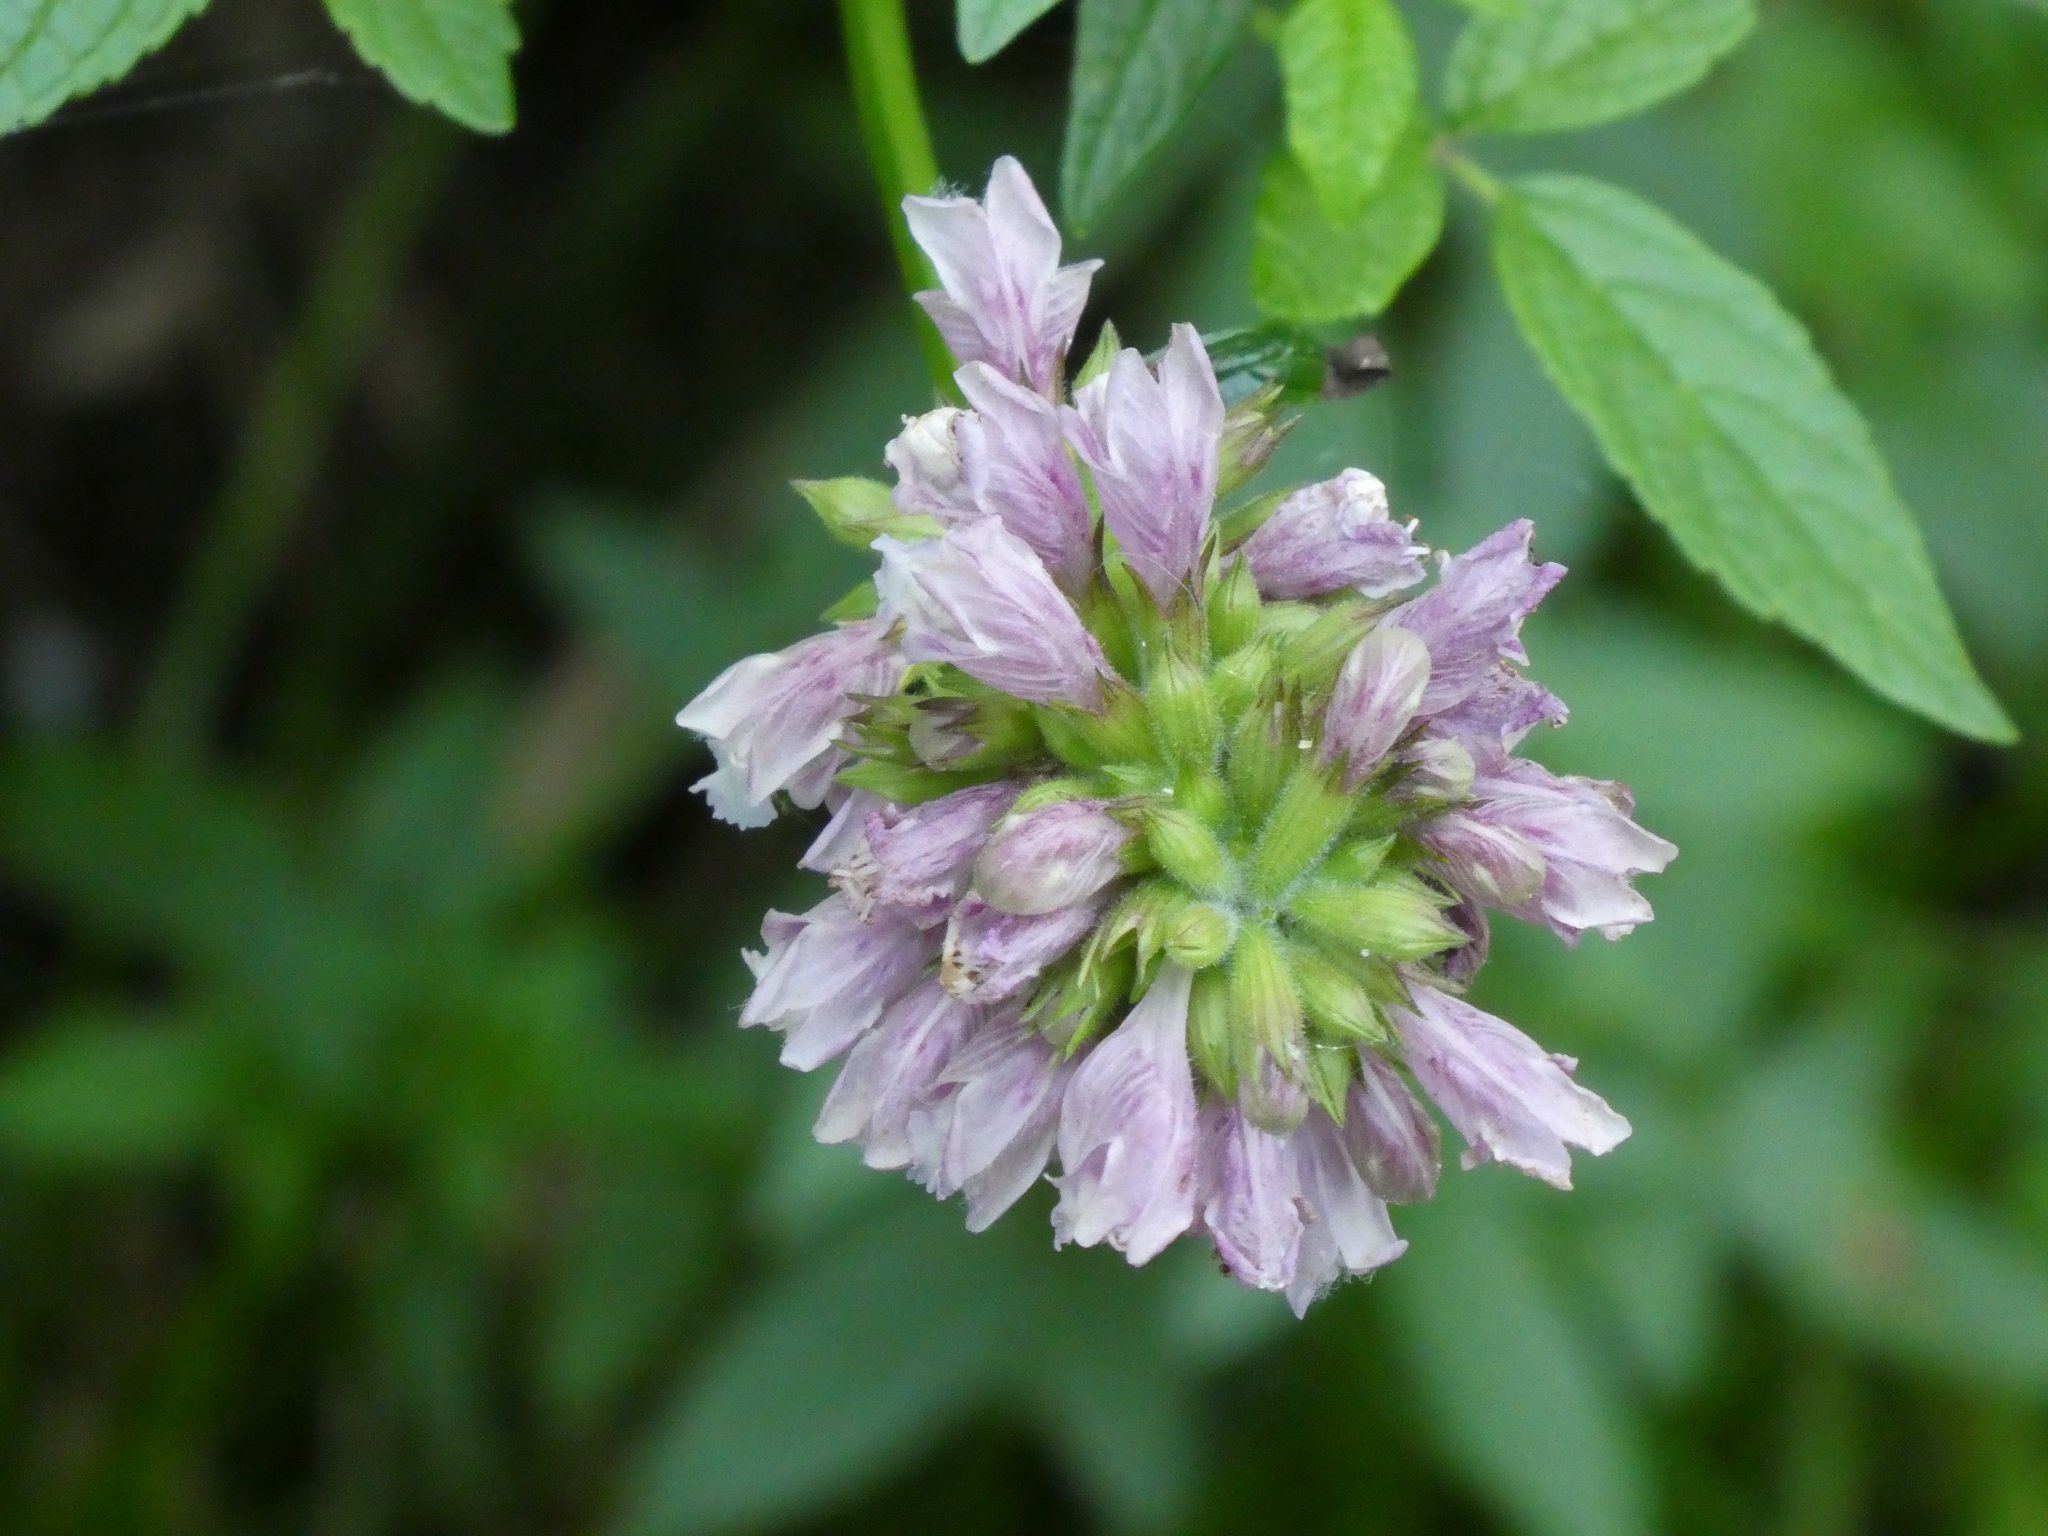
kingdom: Plantae
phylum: Tracheophyta
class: Magnoliopsida
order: Lamiales
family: Lamiaceae
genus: Cedronella
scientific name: Cedronella canariensis
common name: Canary islands balm
